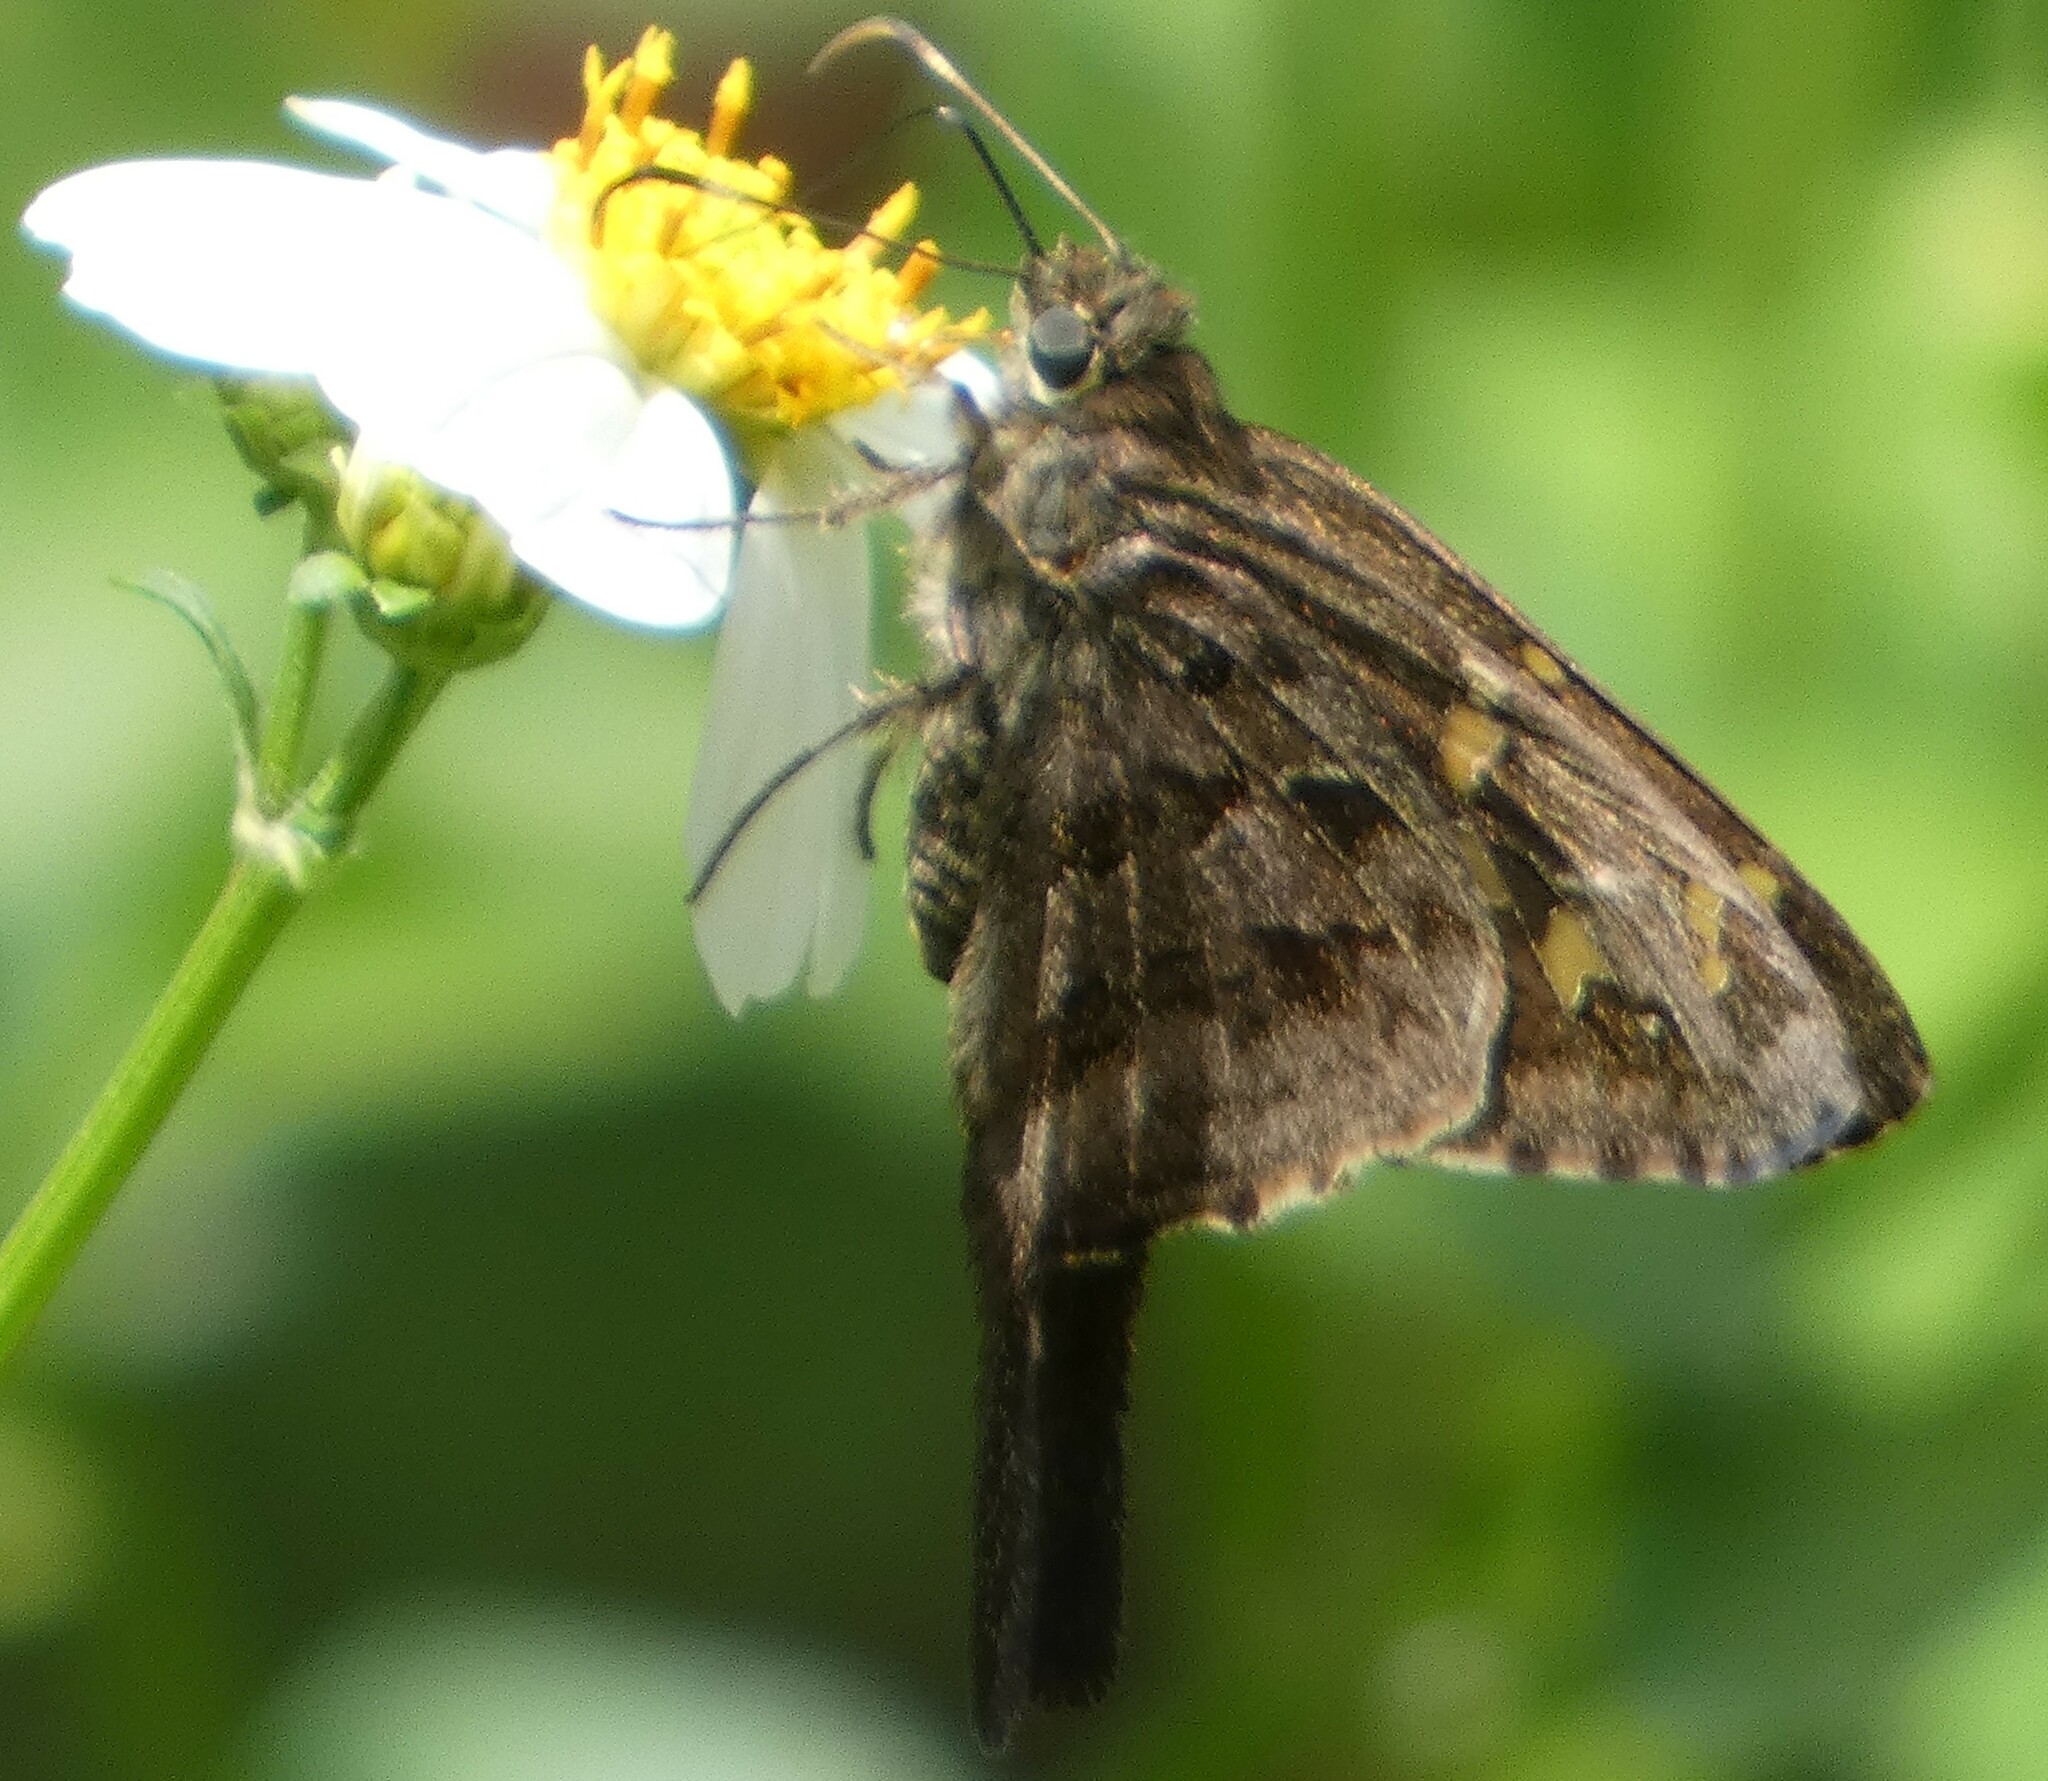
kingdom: Animalia
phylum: Arthropoda
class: Insecta
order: Lepidoptera
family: Hesperiidae
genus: Thorybes
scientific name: Thorybes
